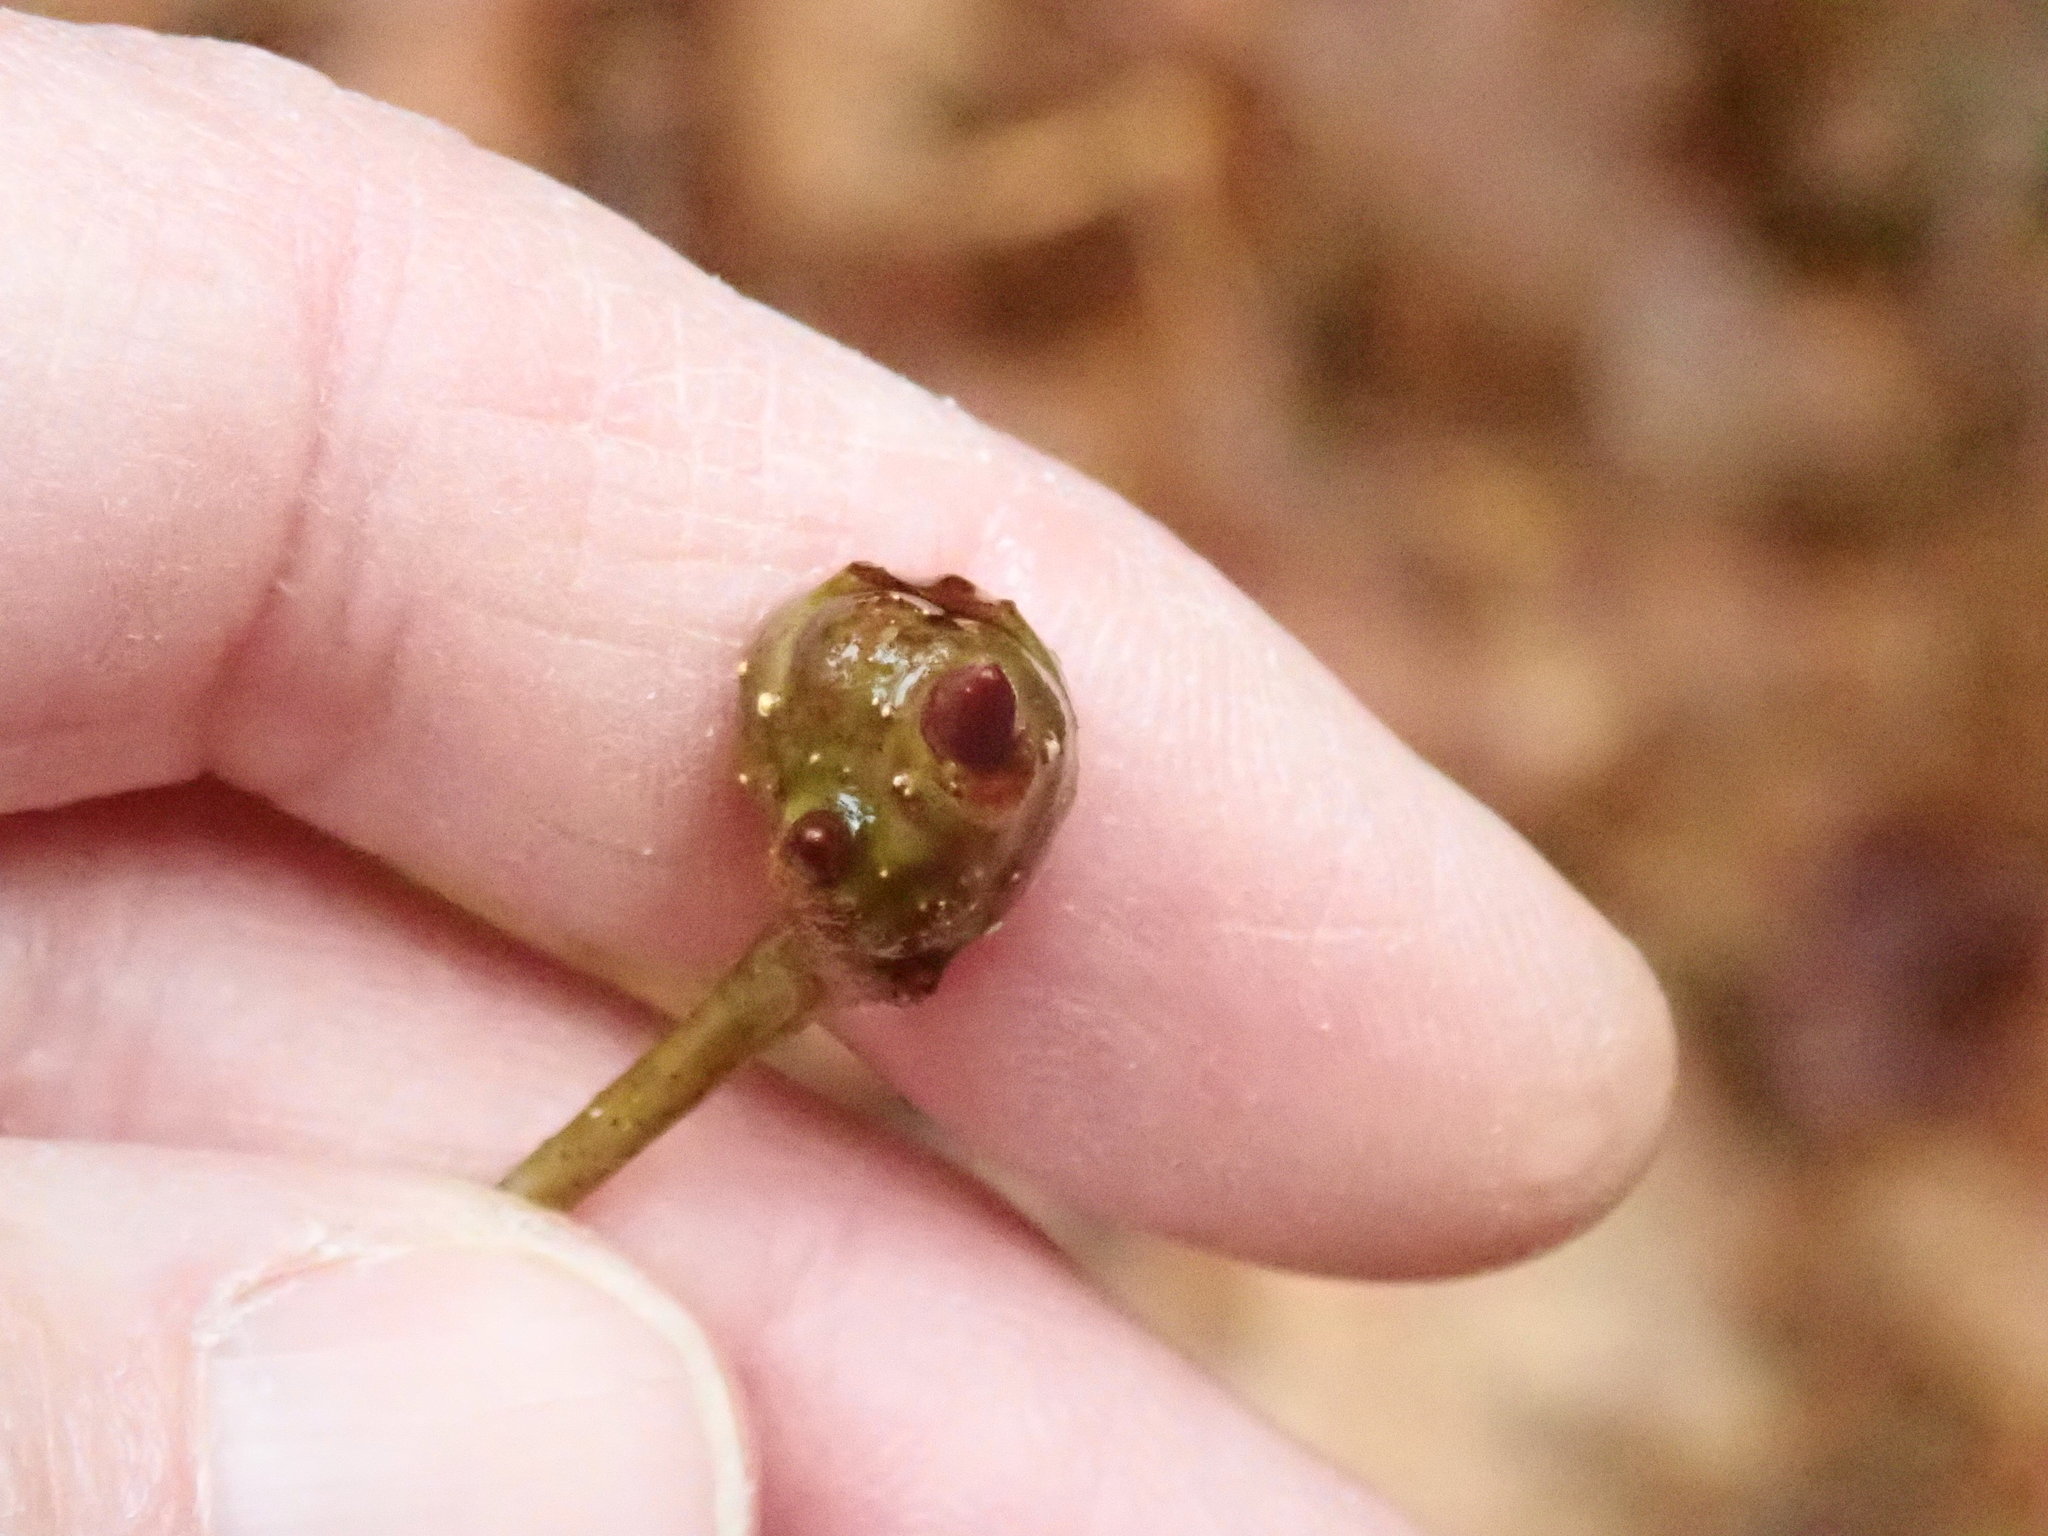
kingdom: Animalia
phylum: Arthropoda
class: Insecta
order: Hymenoptera
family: Cynipidae
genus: Callirhytis
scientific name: Callirhytis clavula
